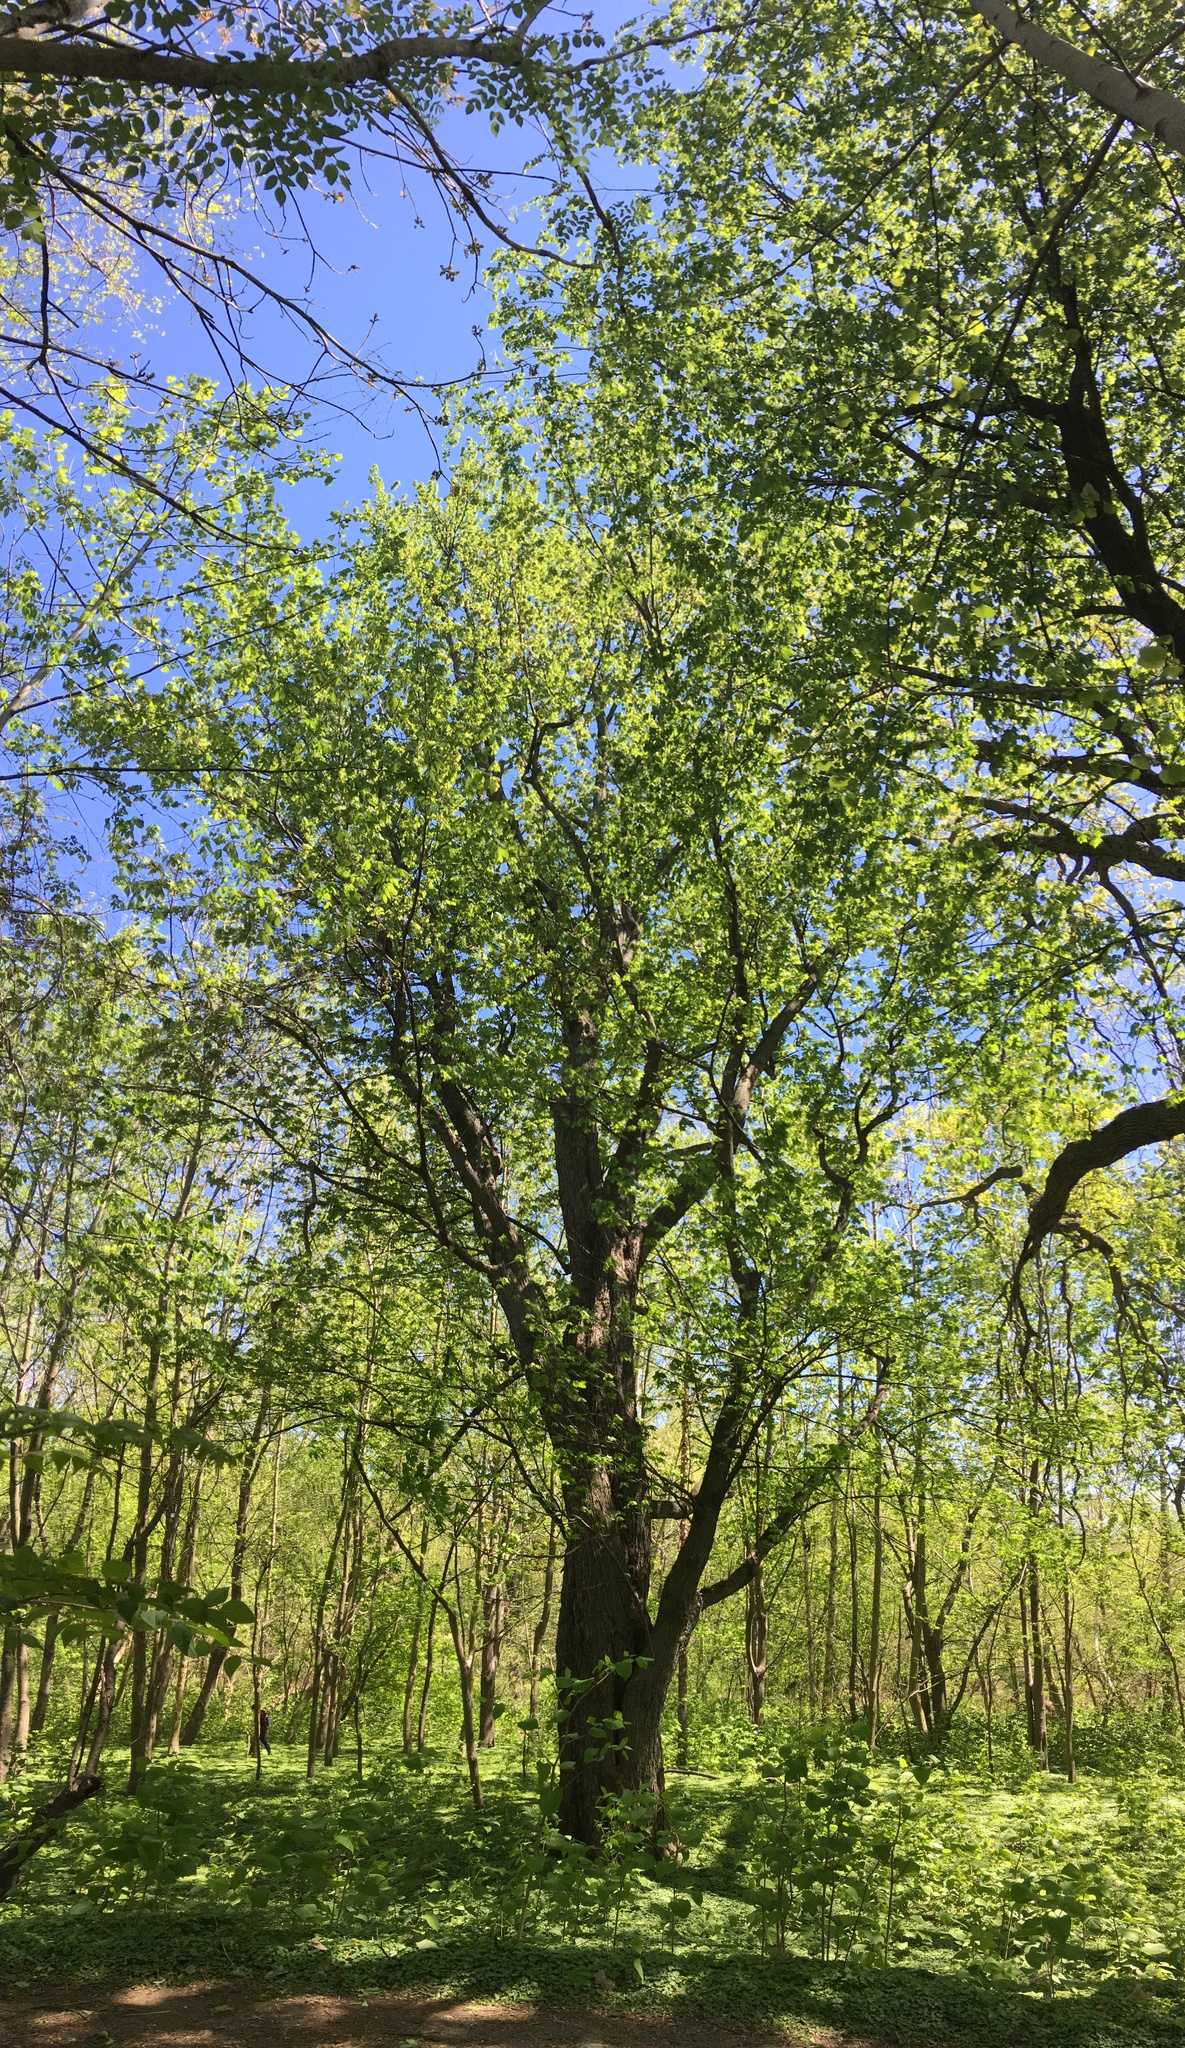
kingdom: Plantae
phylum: Tracheophyta
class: Magnoliopsida
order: Sapindales
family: Sapindaceae
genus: Acer
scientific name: Acer saccharinum
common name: Silver maple
